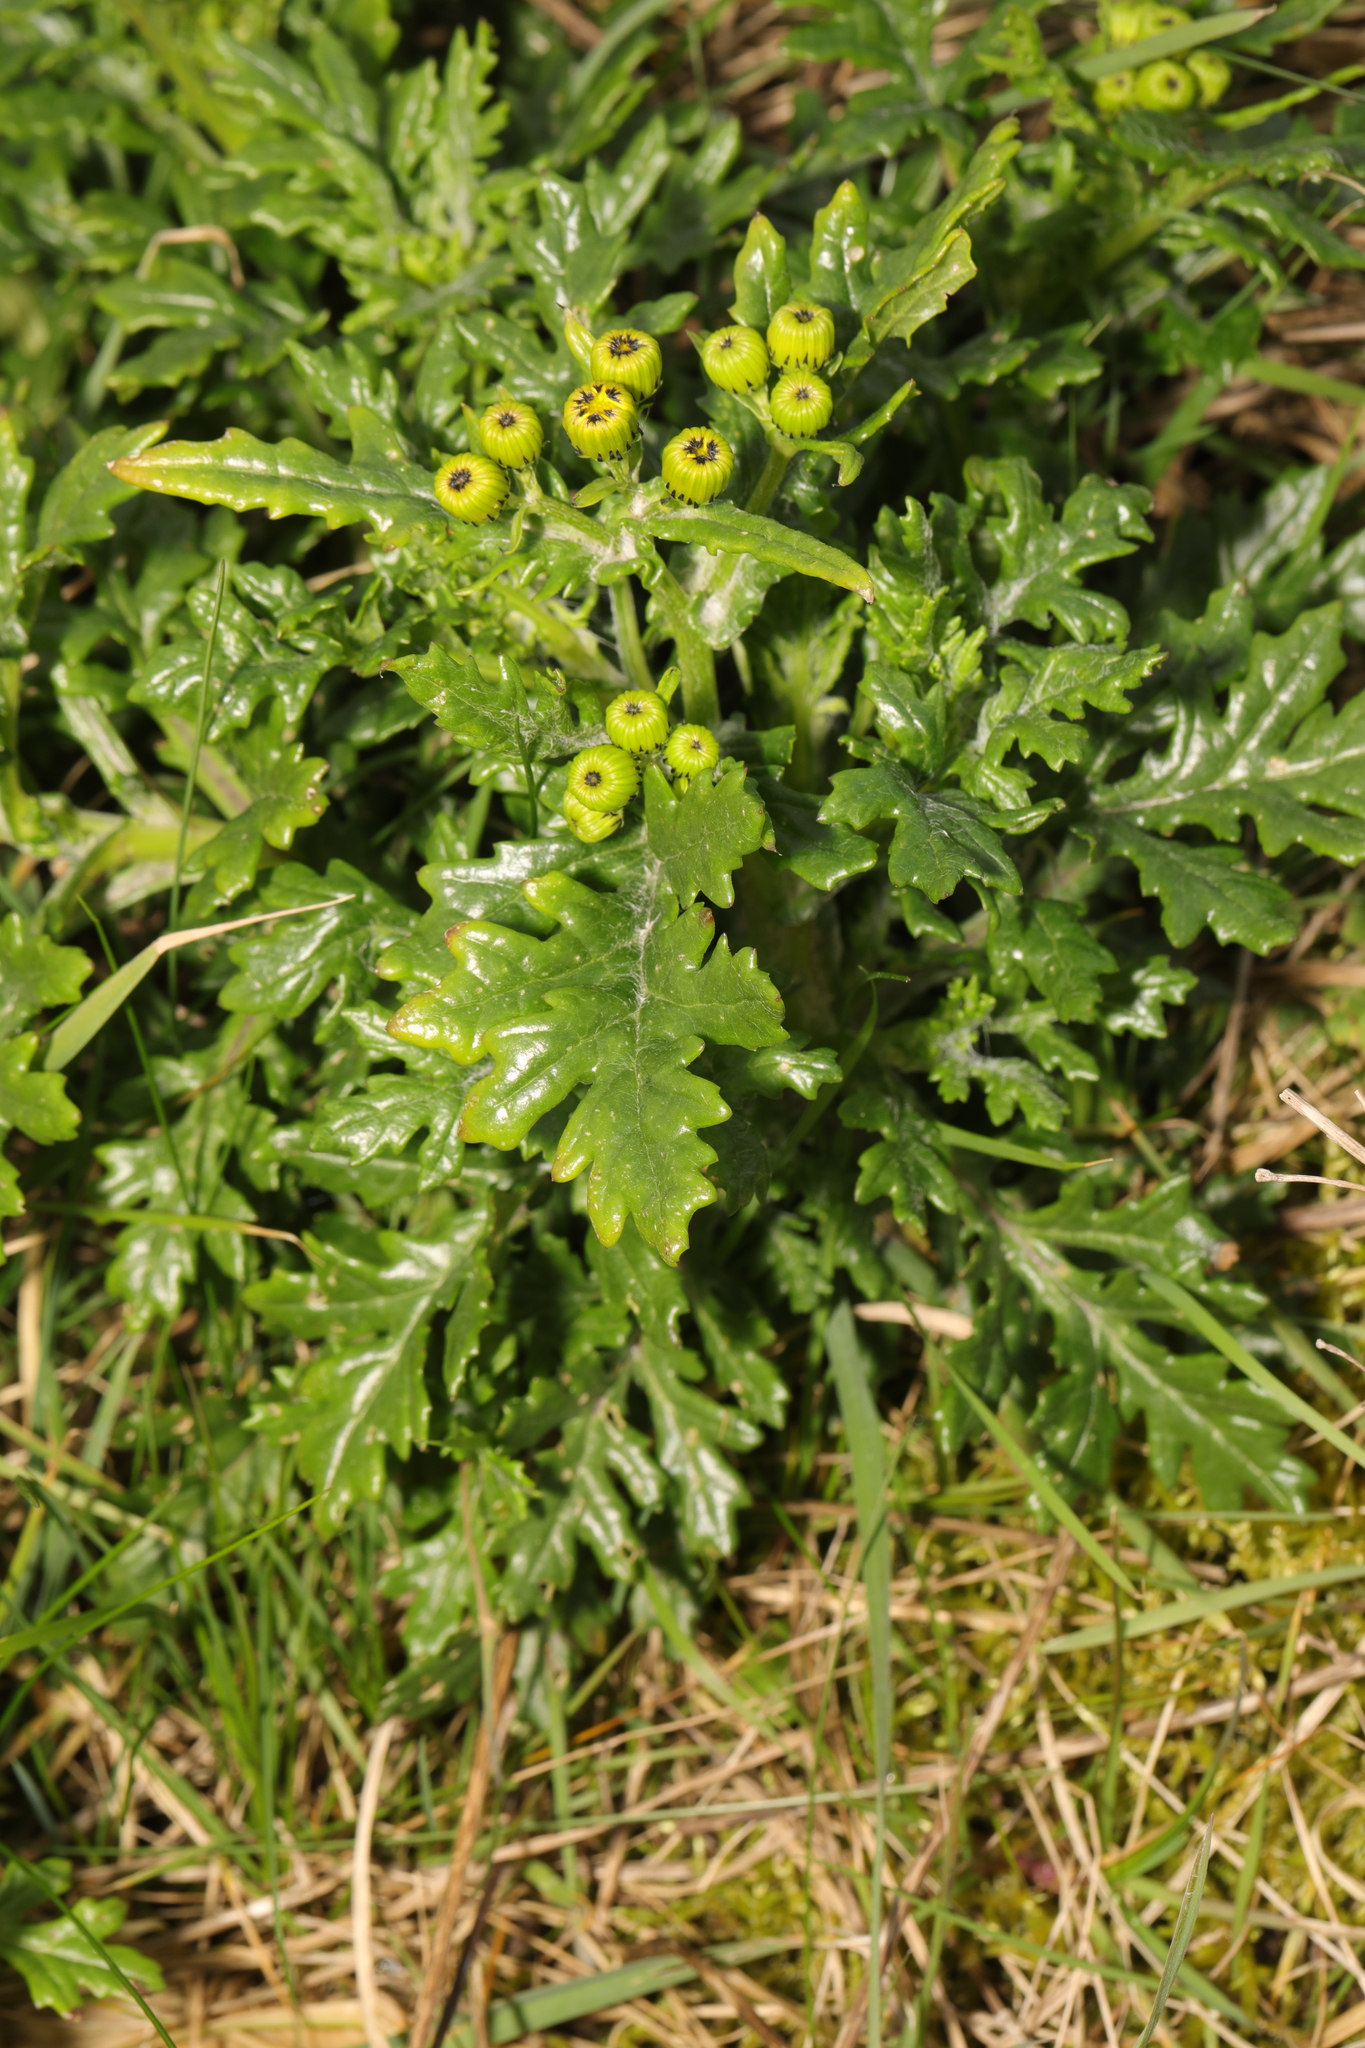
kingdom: Plantae
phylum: Tracheophyta
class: Magnoliopsida
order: Asterales
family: Asteraceae
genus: Senecio
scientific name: Senecio squalidus
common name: Oxford ragwort
